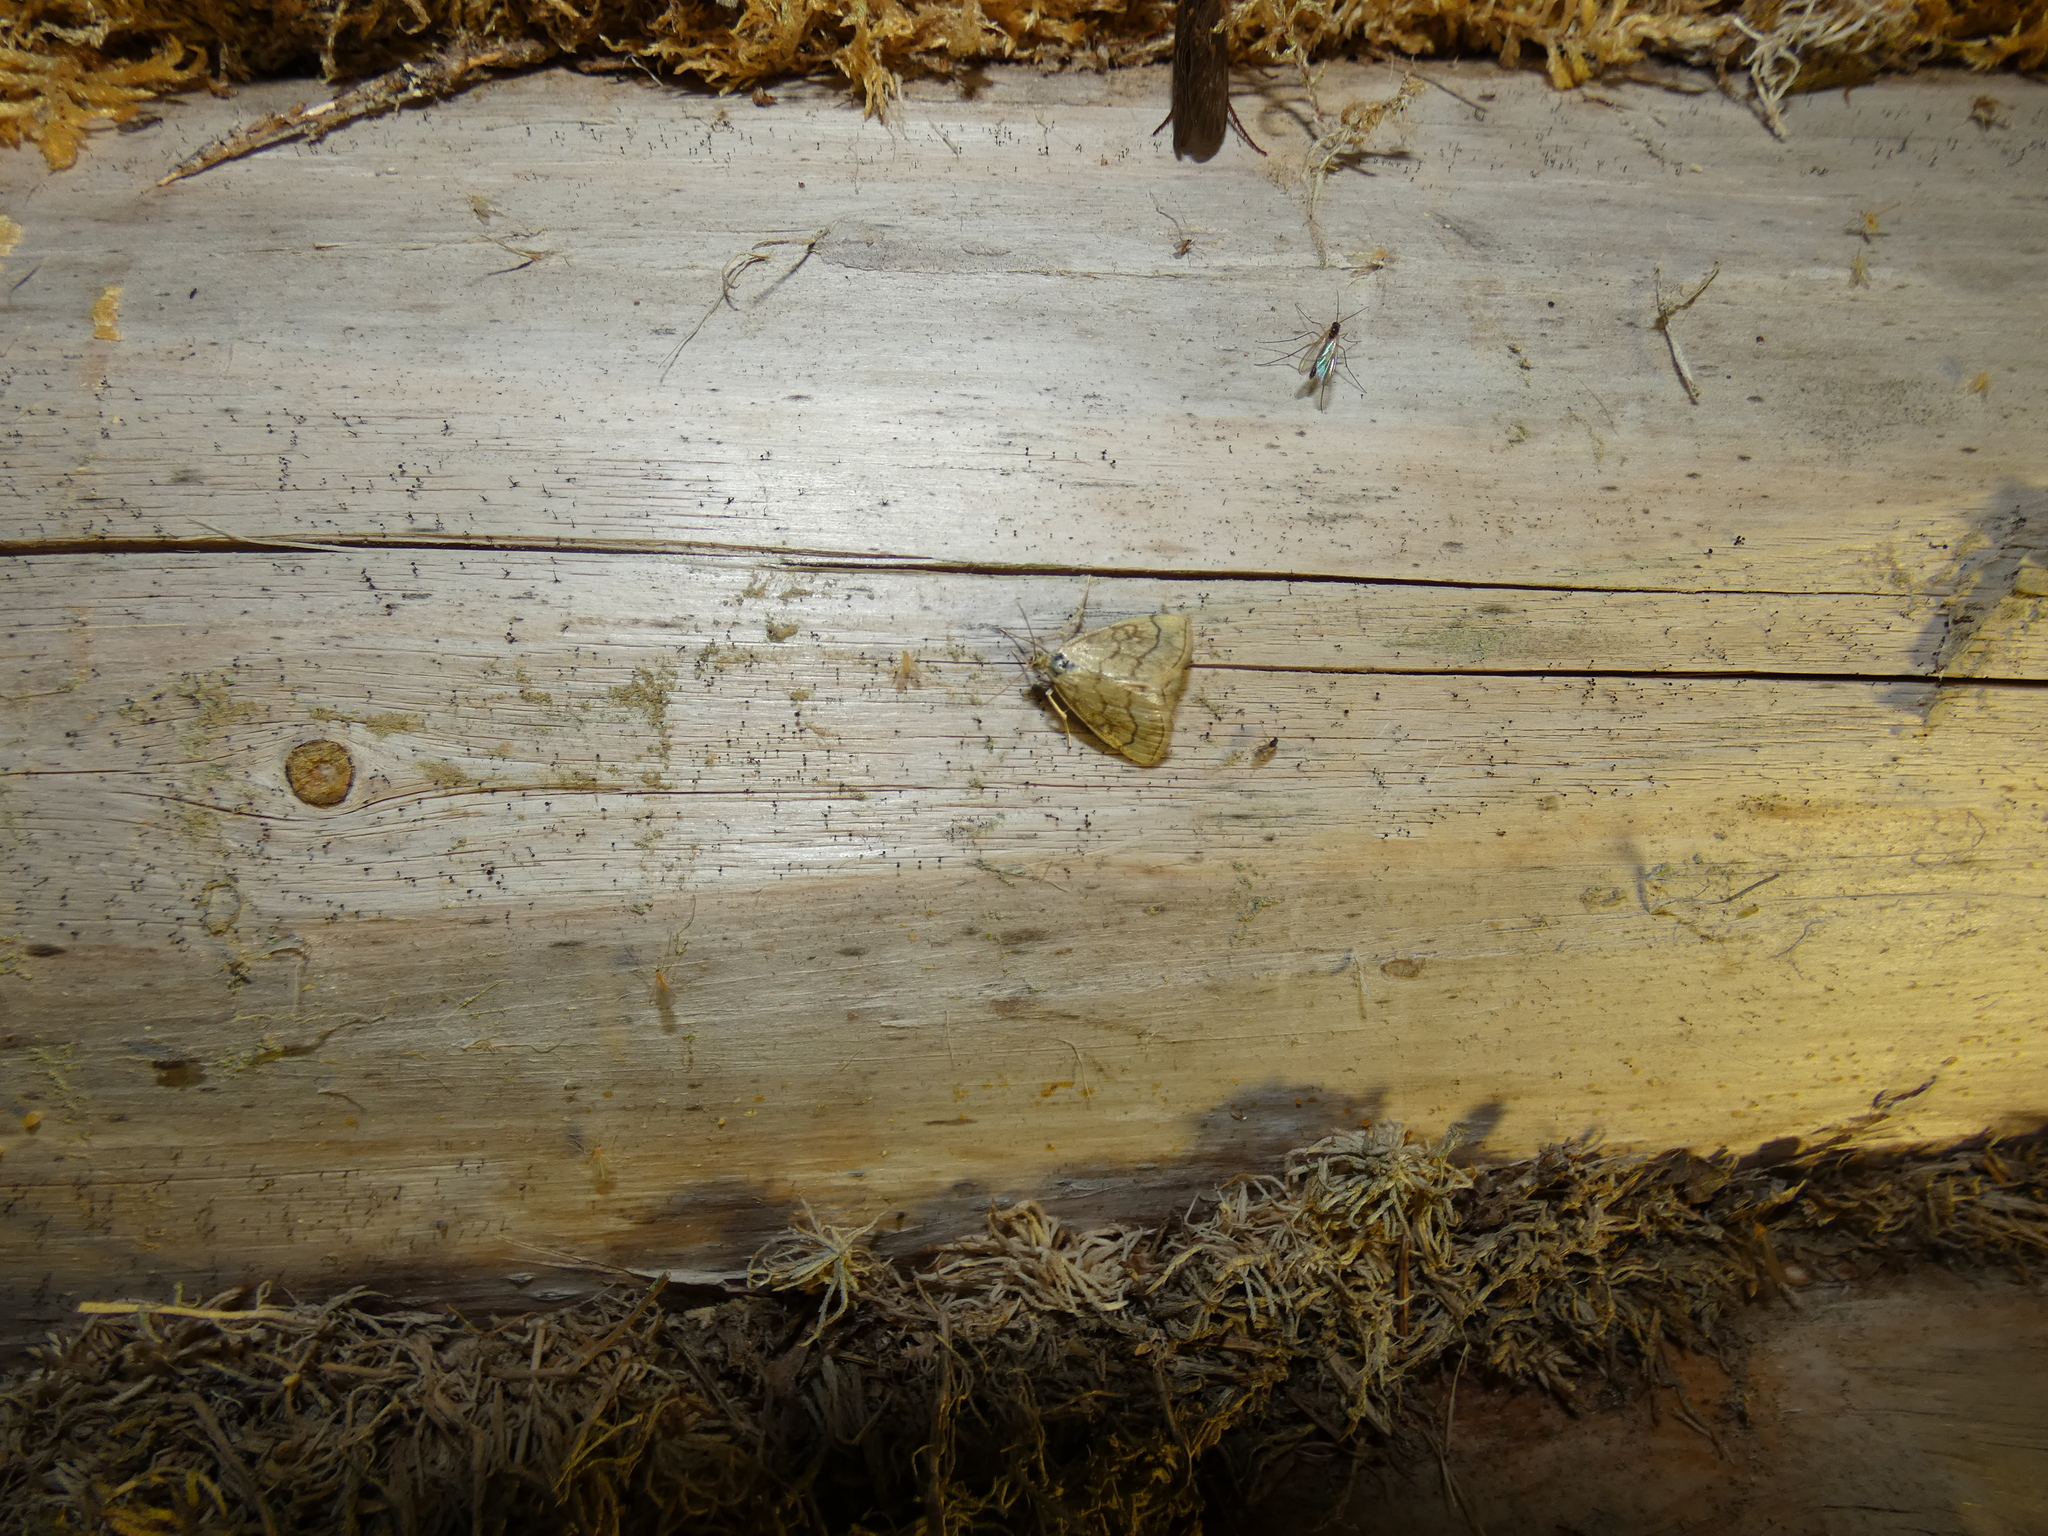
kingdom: Animalia
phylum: Arthropoda
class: Insecta
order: Lepidoptera
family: Crambidae
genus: Evergestis
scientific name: Evergestis pallidata
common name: Chequered pearl
